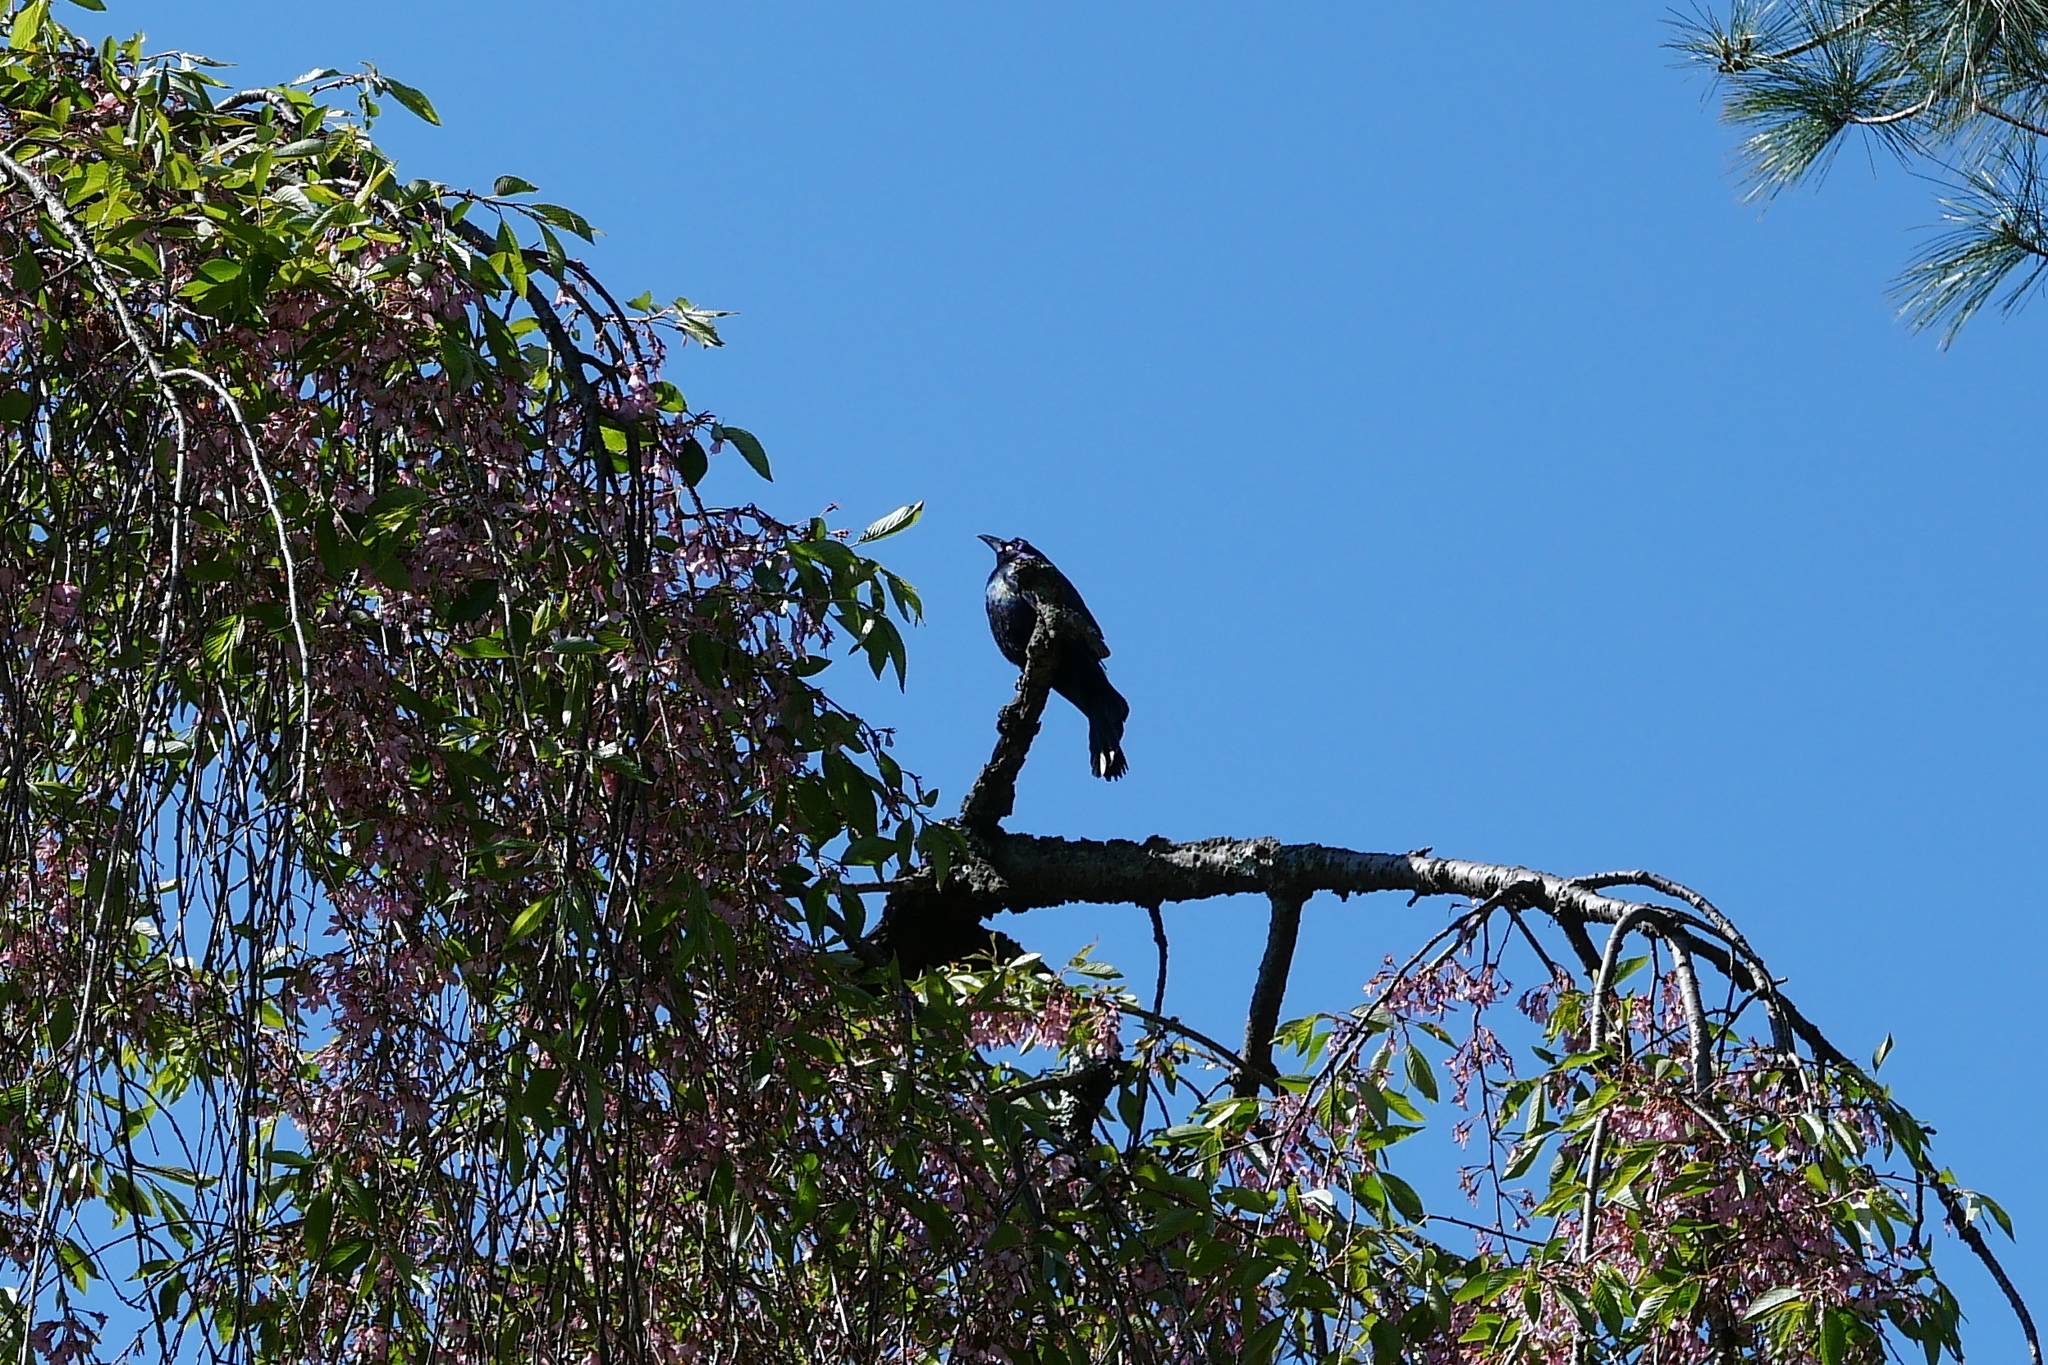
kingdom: Animalia
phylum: Chordata
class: Aves
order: Passeriformes
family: Icteridae
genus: Quiscalus
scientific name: Quiscalus quiscula
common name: Common grackle
